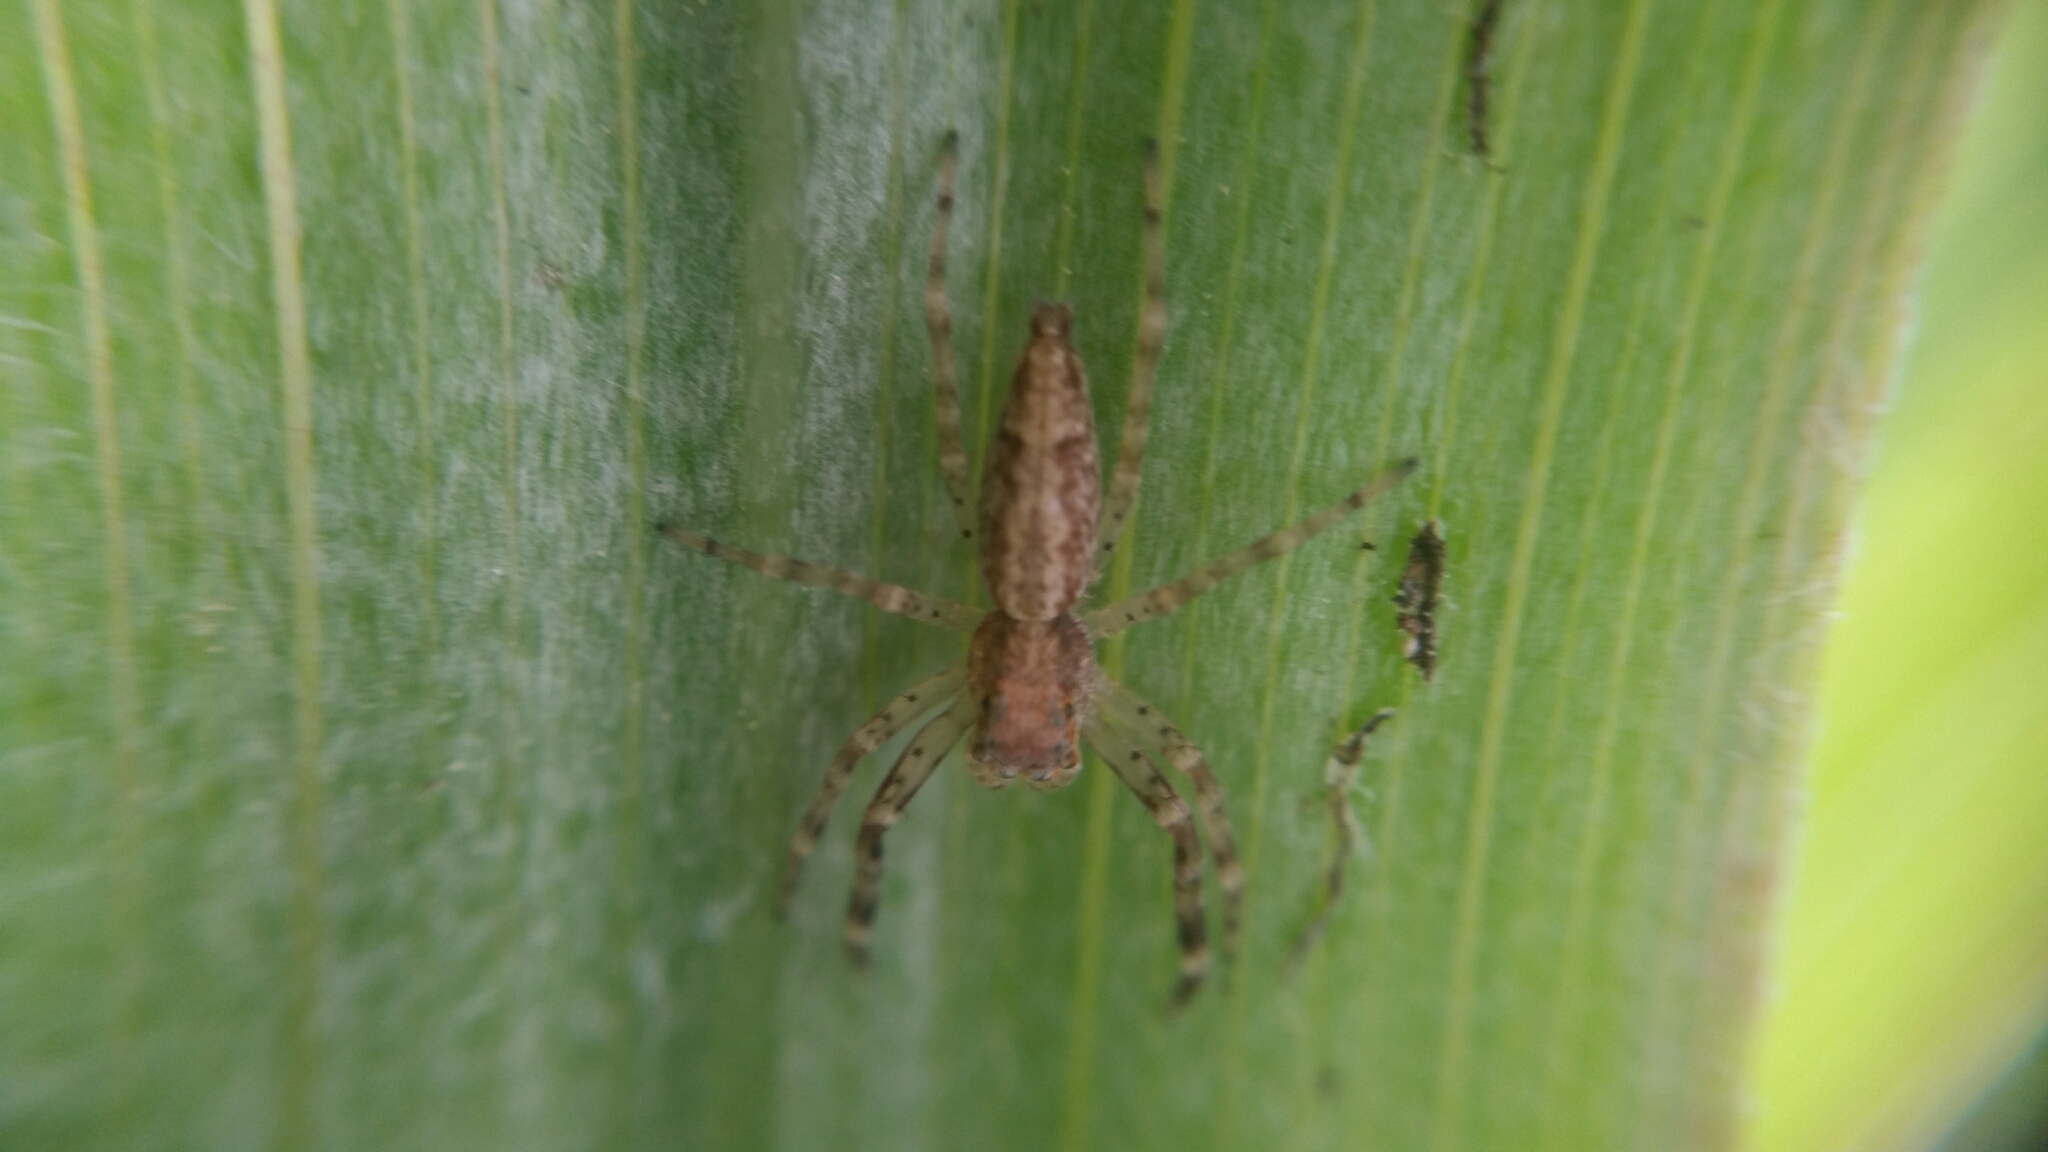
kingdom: Animalia
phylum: Arthropoda
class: Arachnida
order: Araneae
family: Salticidae
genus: Helpis
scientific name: Helpis minitabunda
